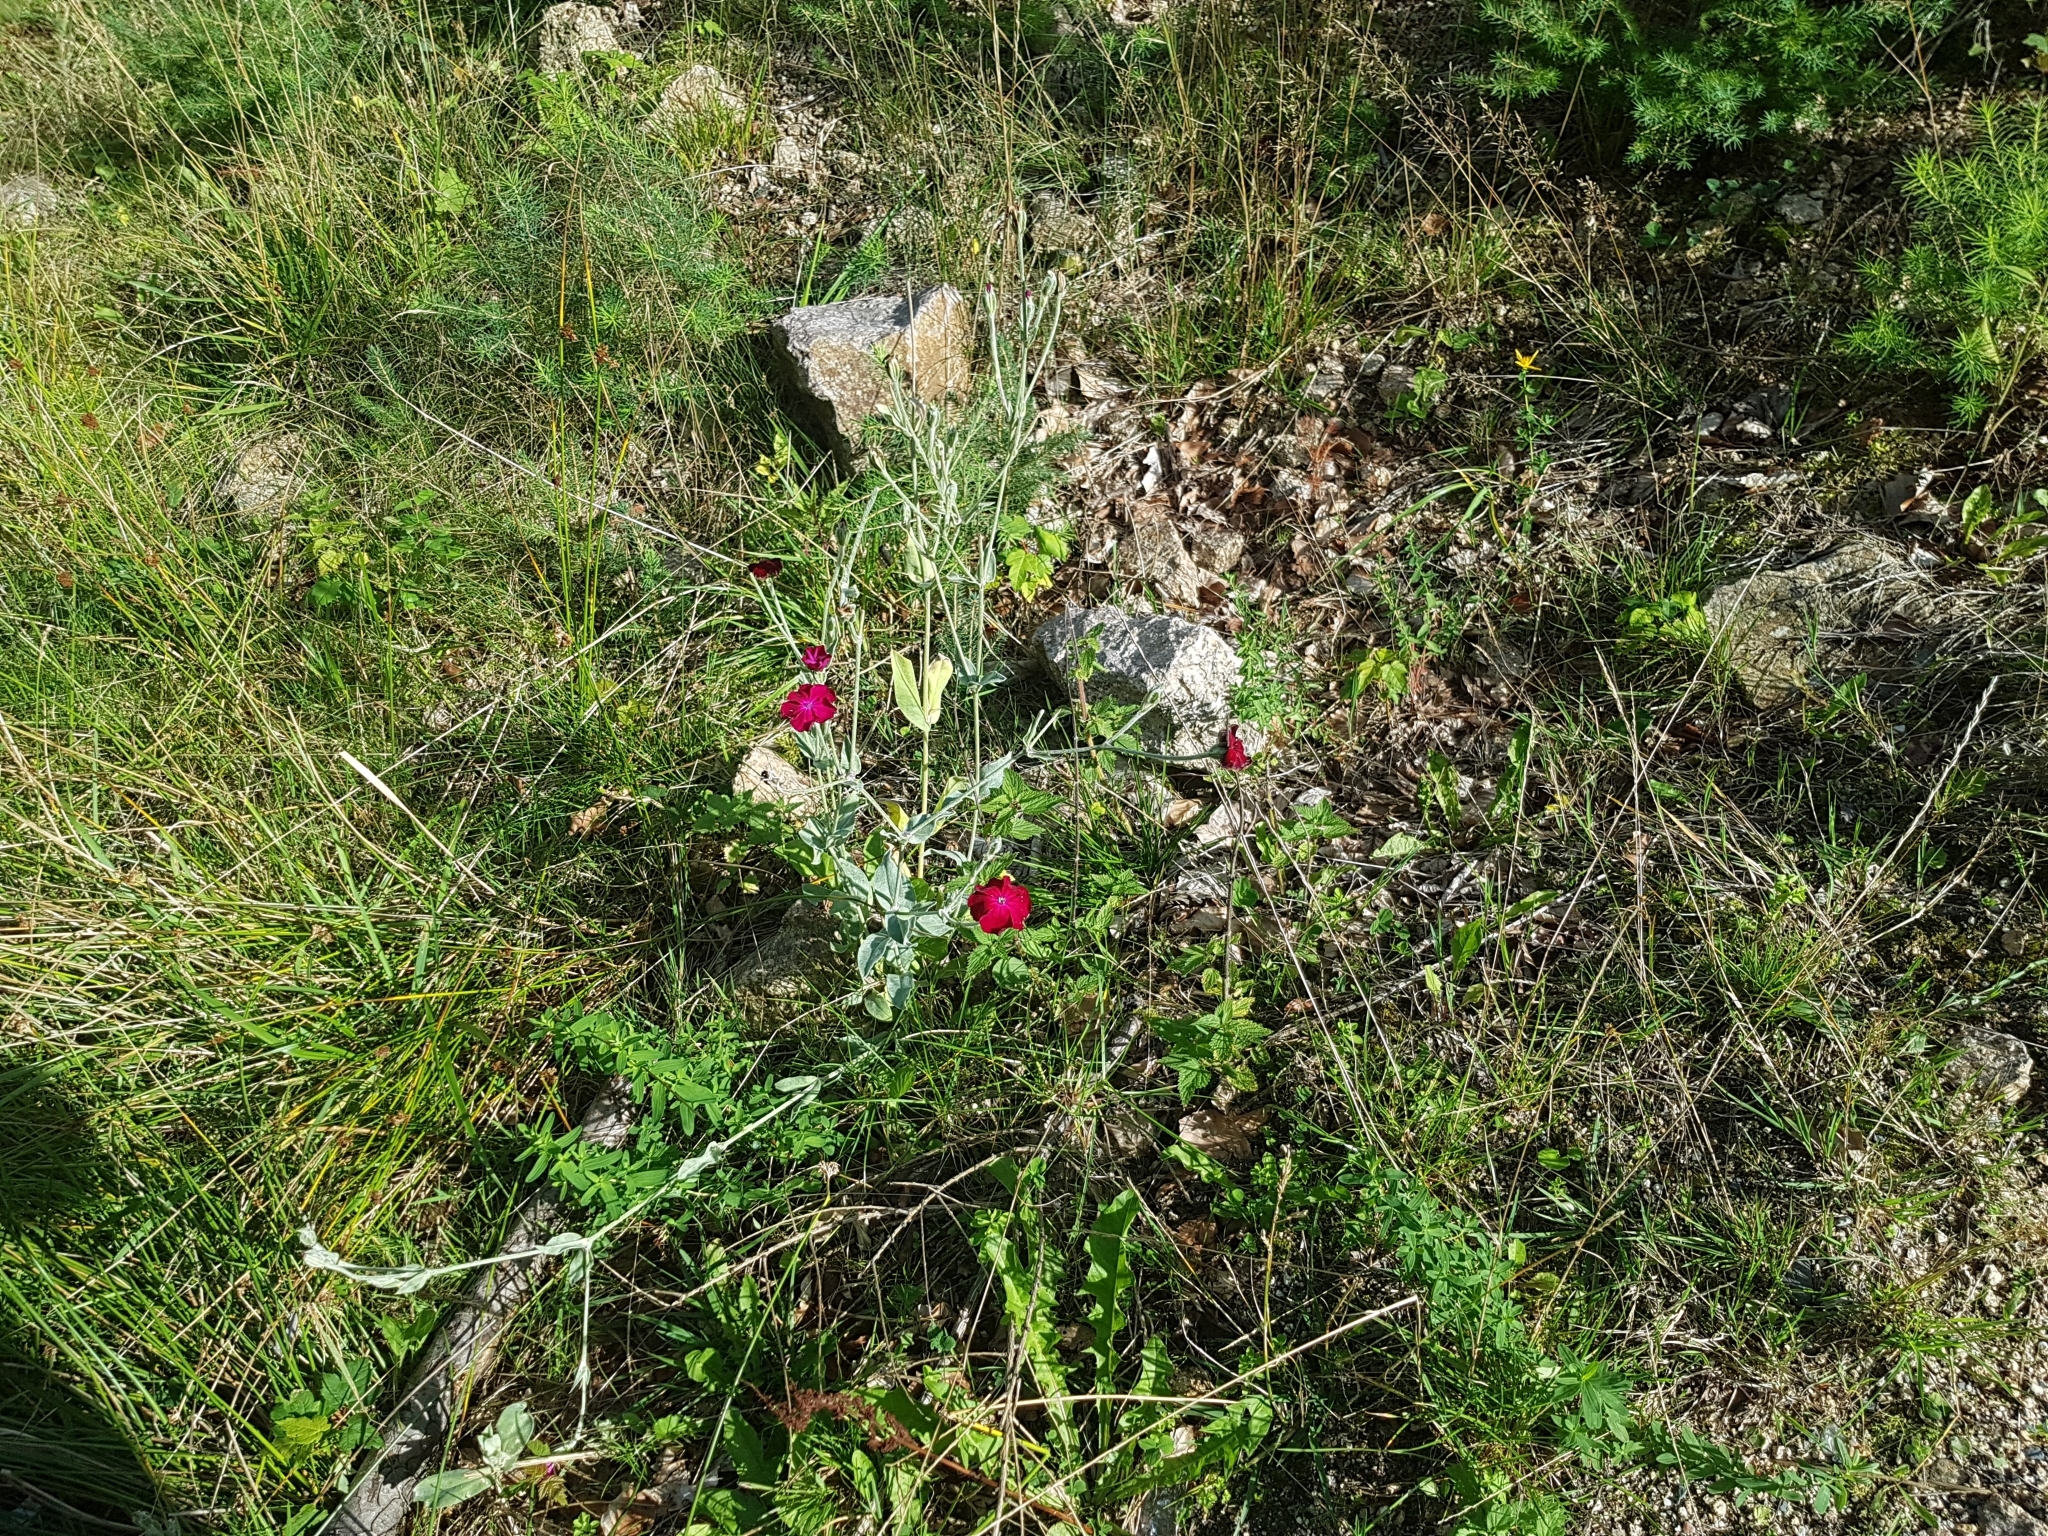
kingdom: Plantae
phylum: Tracheophyta
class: Magnoliopsida
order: Caryophyllales
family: Caryophyllaceae
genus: Silene
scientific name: Silene coronaria
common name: Rose campion
